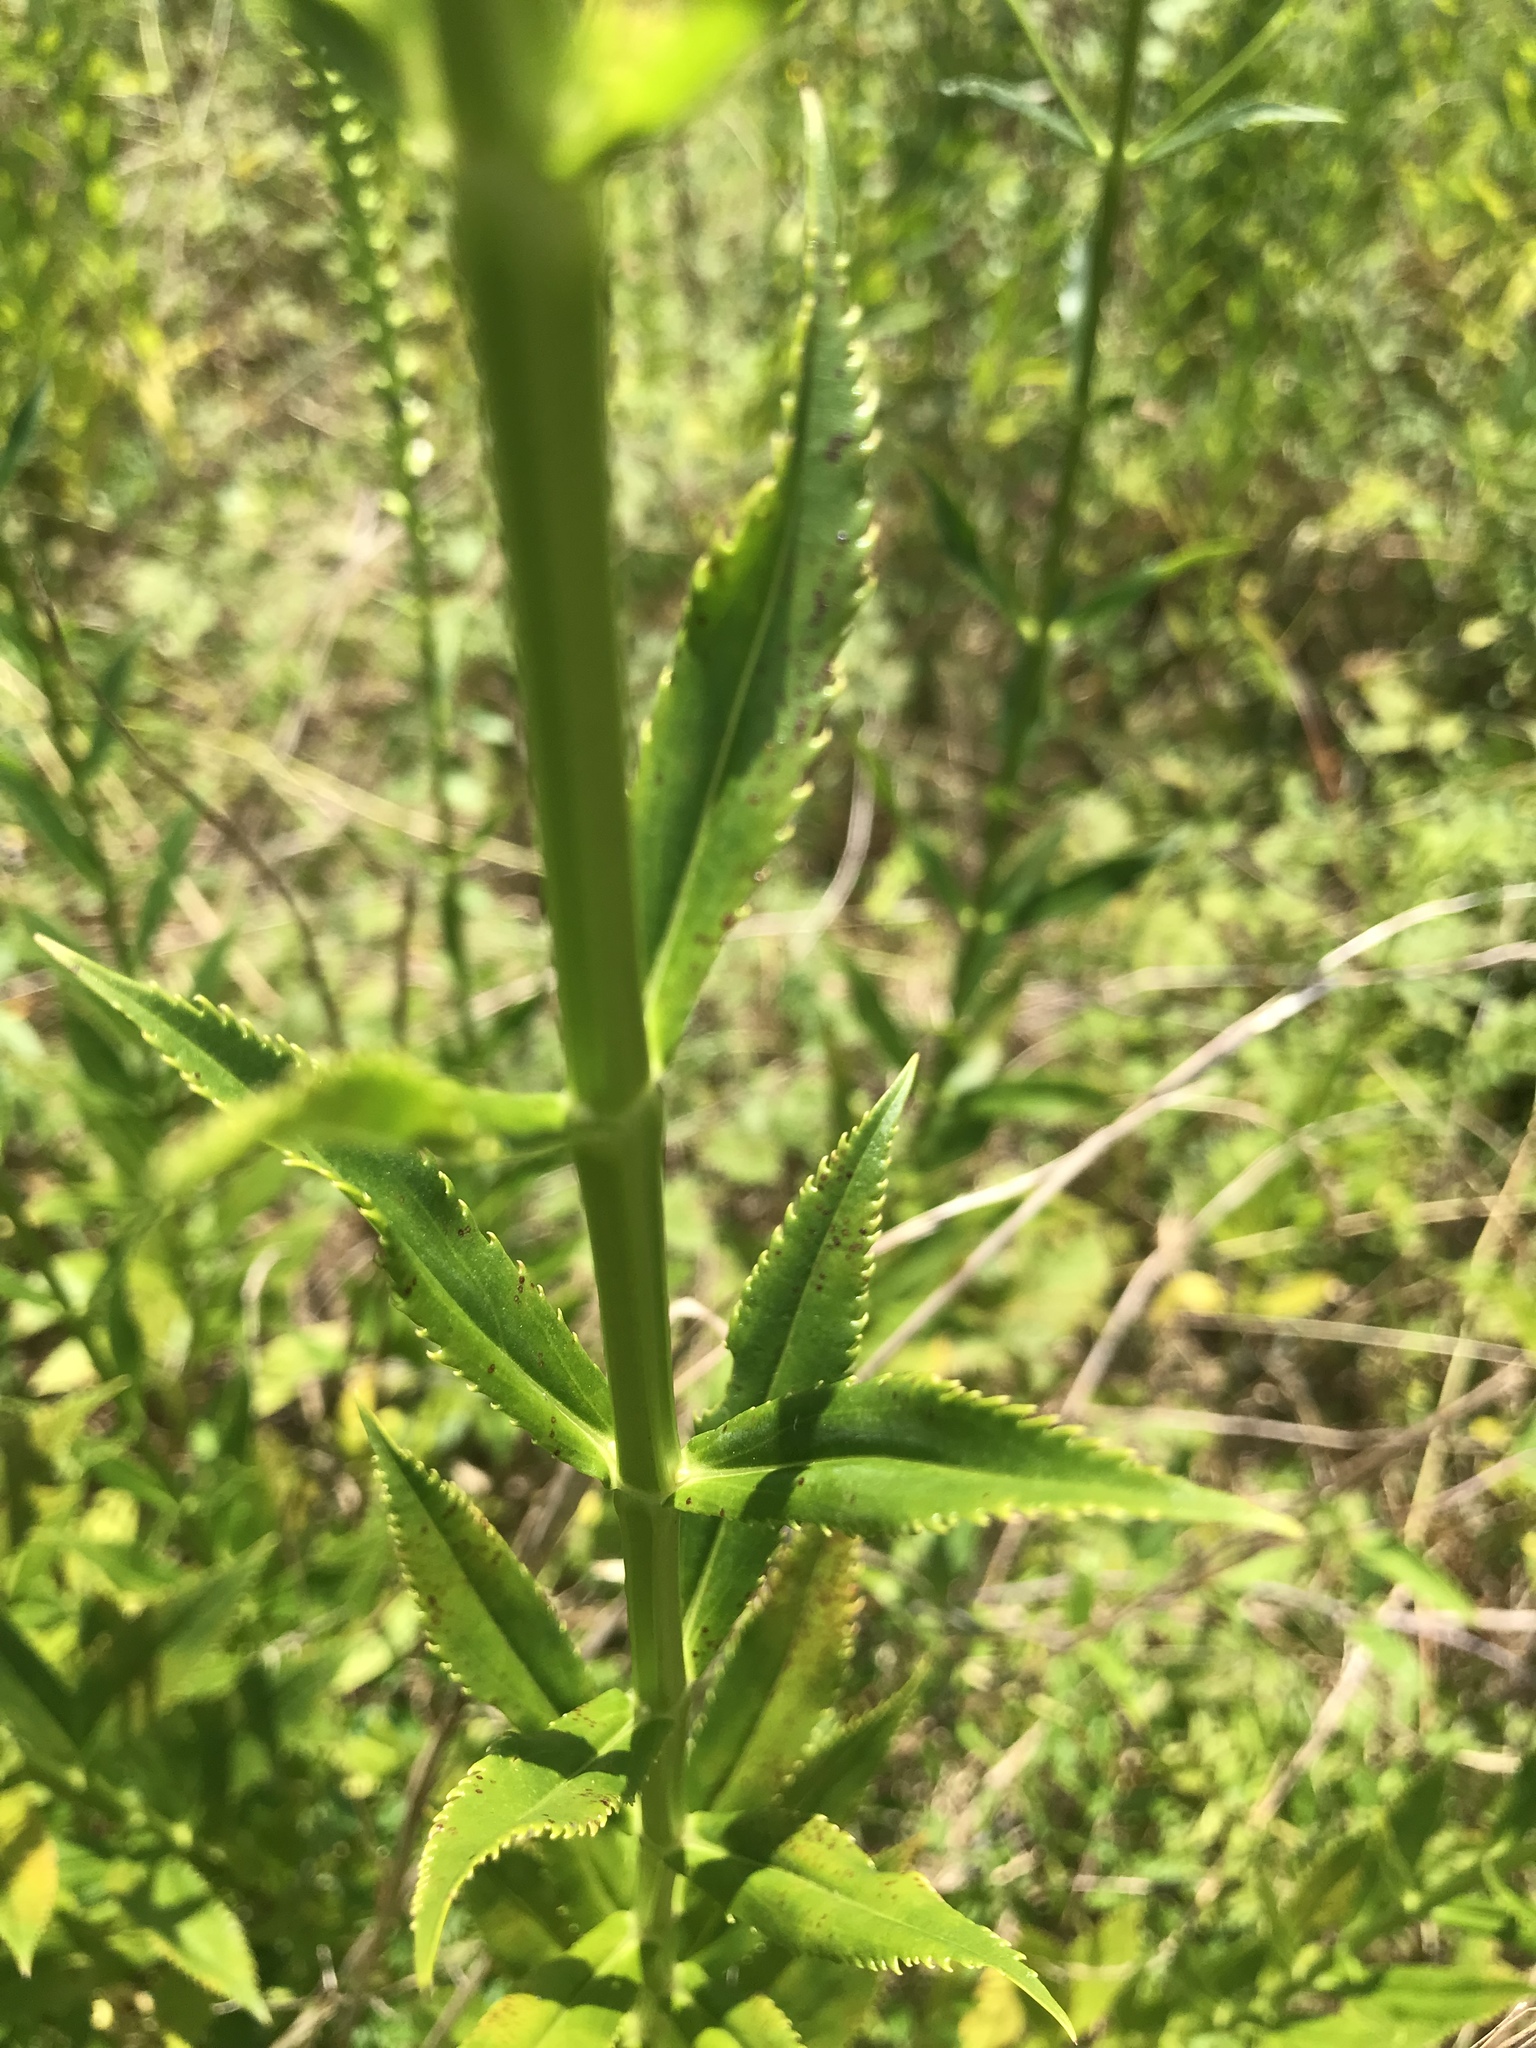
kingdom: Plantae
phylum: Tracheophyta
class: Magnoliopsida
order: Lamiales
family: Lamiaceae
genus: Physostegia
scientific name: Physostegia virginiana
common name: Obedient-plant
